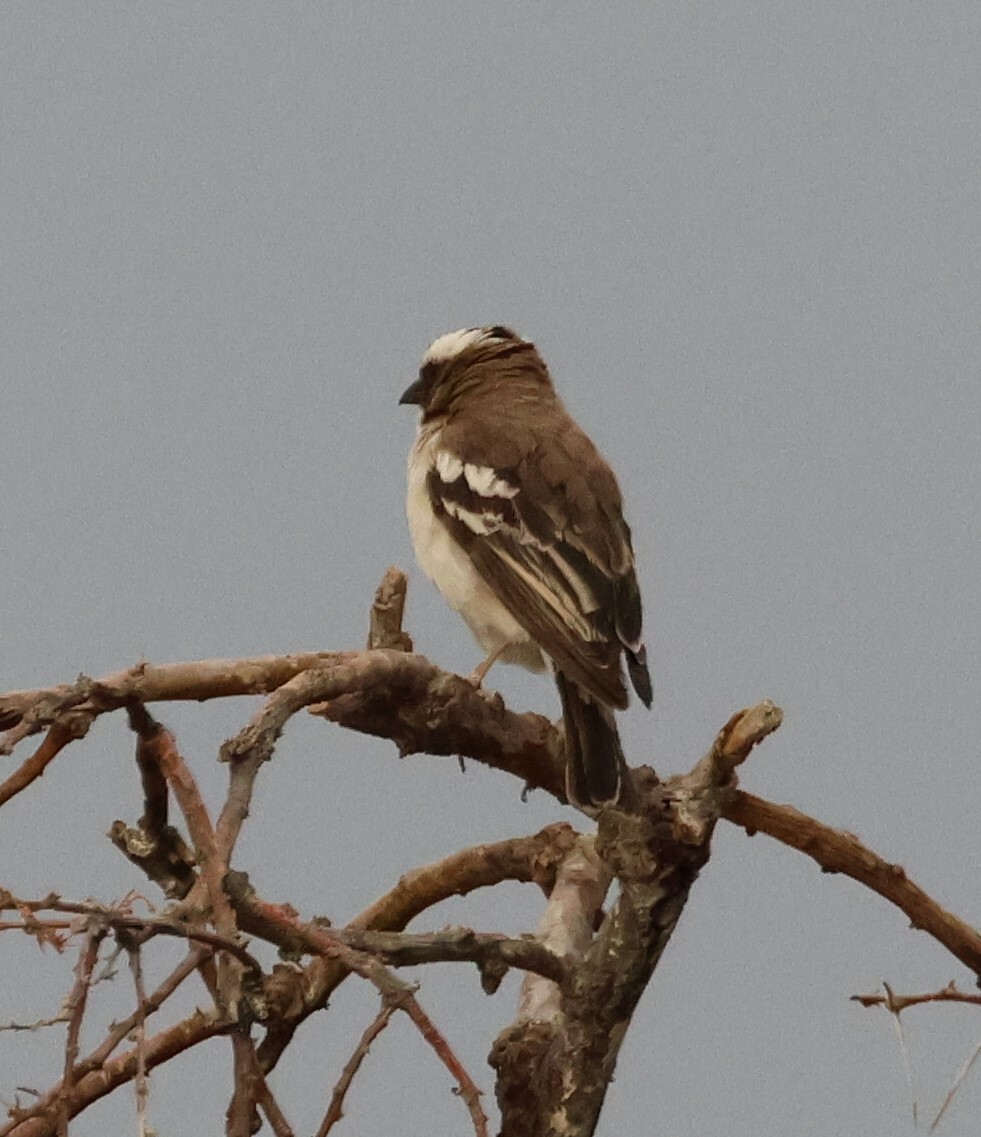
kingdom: Animalia
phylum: Chordata
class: Aves
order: Passeriformes
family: Passeridae
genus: Plocepasser
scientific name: Plocepasser mahali
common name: White-browed sparrow-weaver
